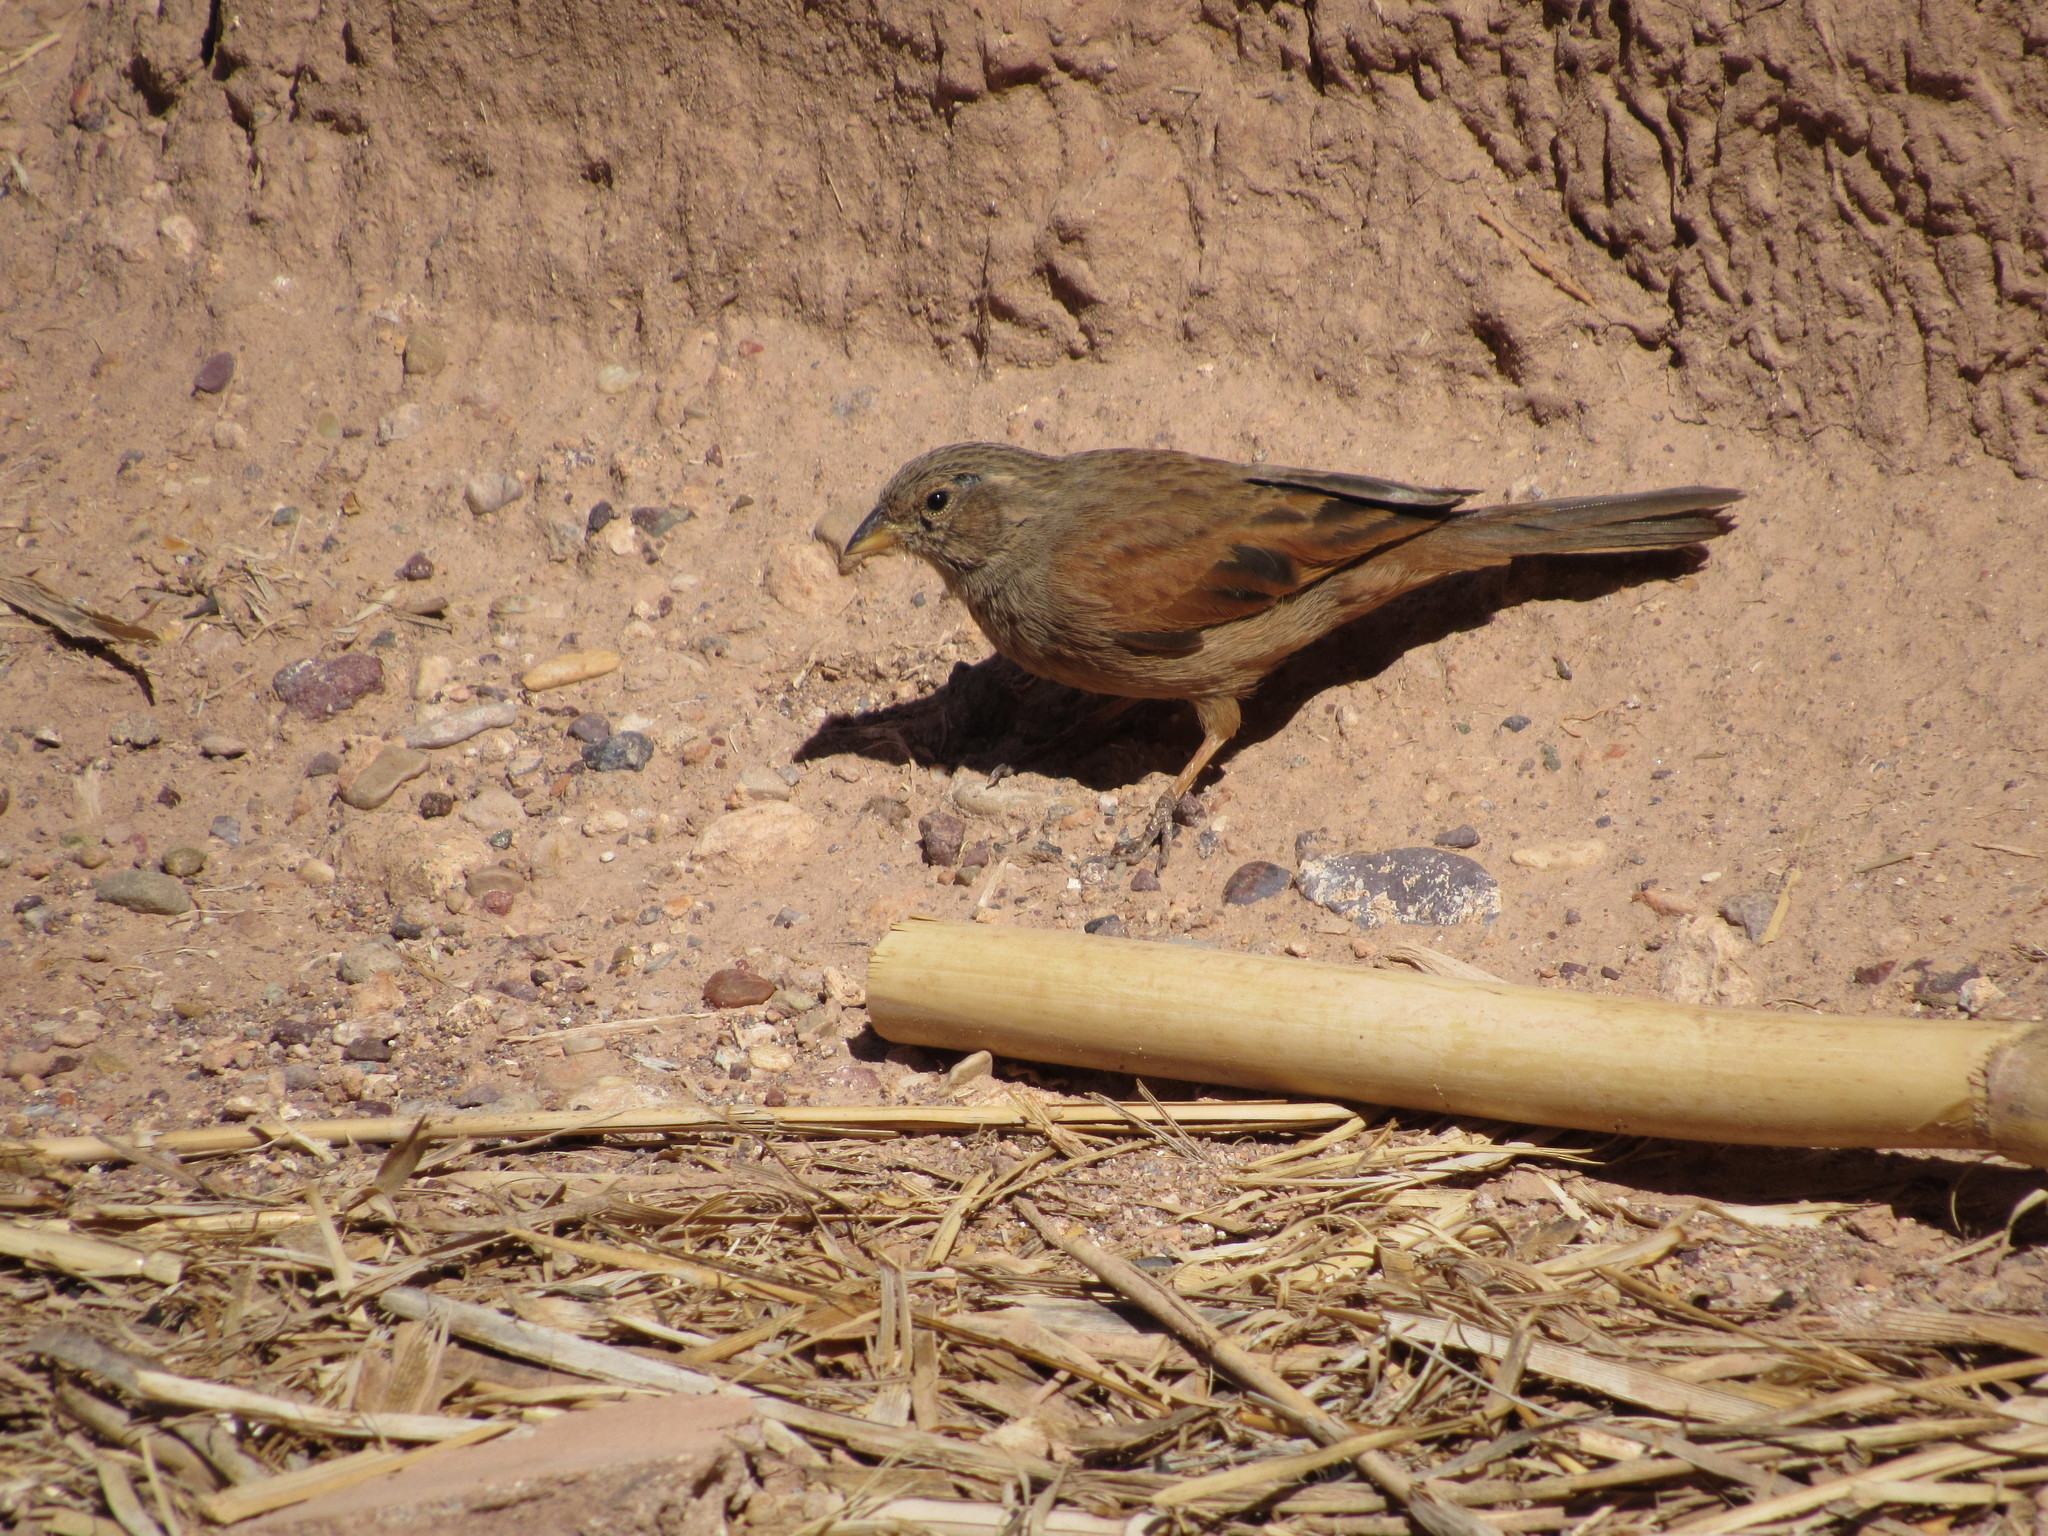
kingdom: Animalia
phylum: Chordata
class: Aves
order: Passeriformes
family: Emberizidae
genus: Emberiza
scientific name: Emberiza sahari
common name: House bunting
